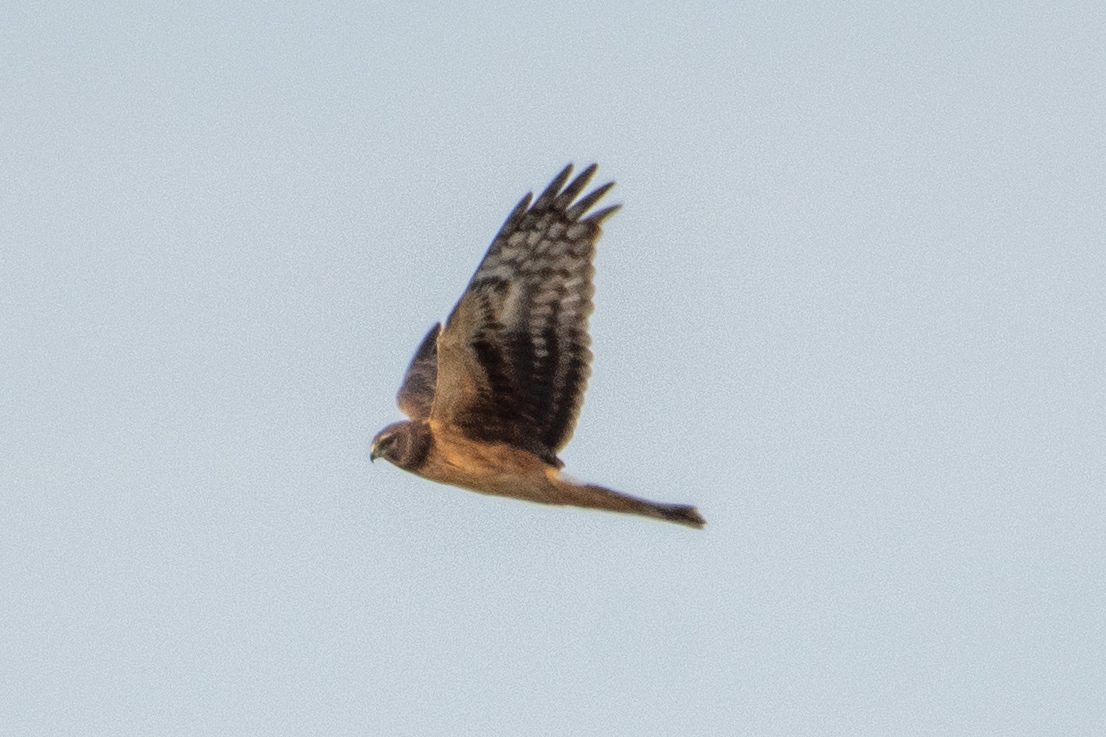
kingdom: Animalia
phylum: Chordata
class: Aves
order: Accipitriformes
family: Accipitridae
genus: Circus
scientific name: Circus cyaneus
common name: Hen harrier
